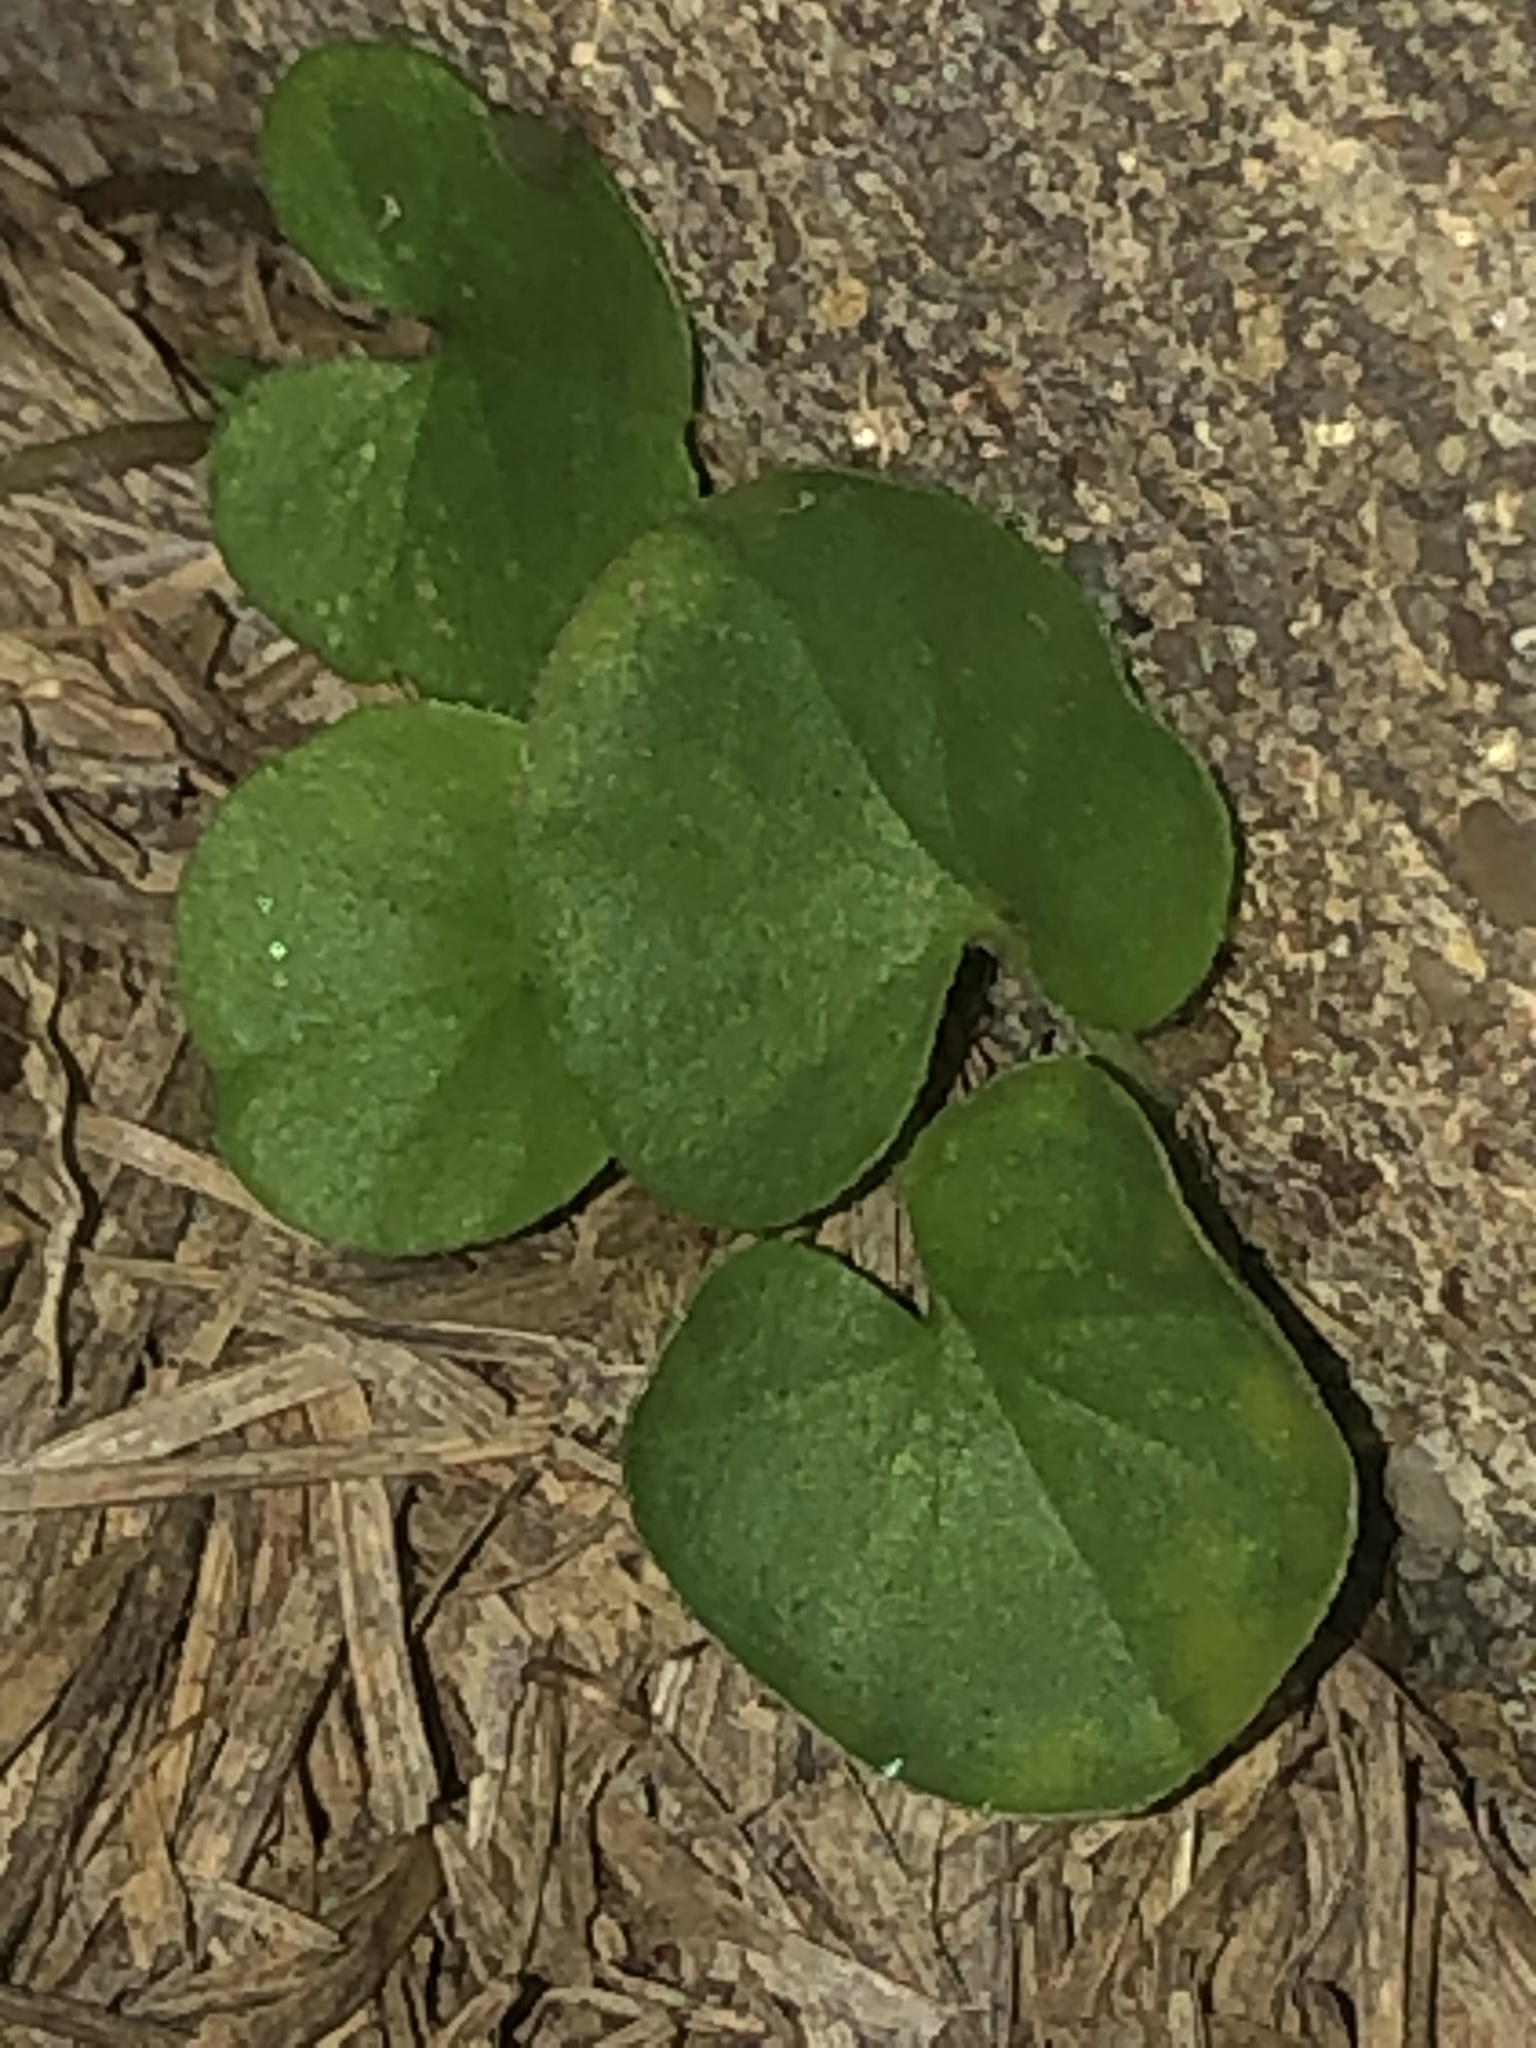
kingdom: Plantae
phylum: Tracheophyta
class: Magnoliopsida
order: Solanales
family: Convolvulaceae
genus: Dichondra
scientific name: Dichondra carolinensis
